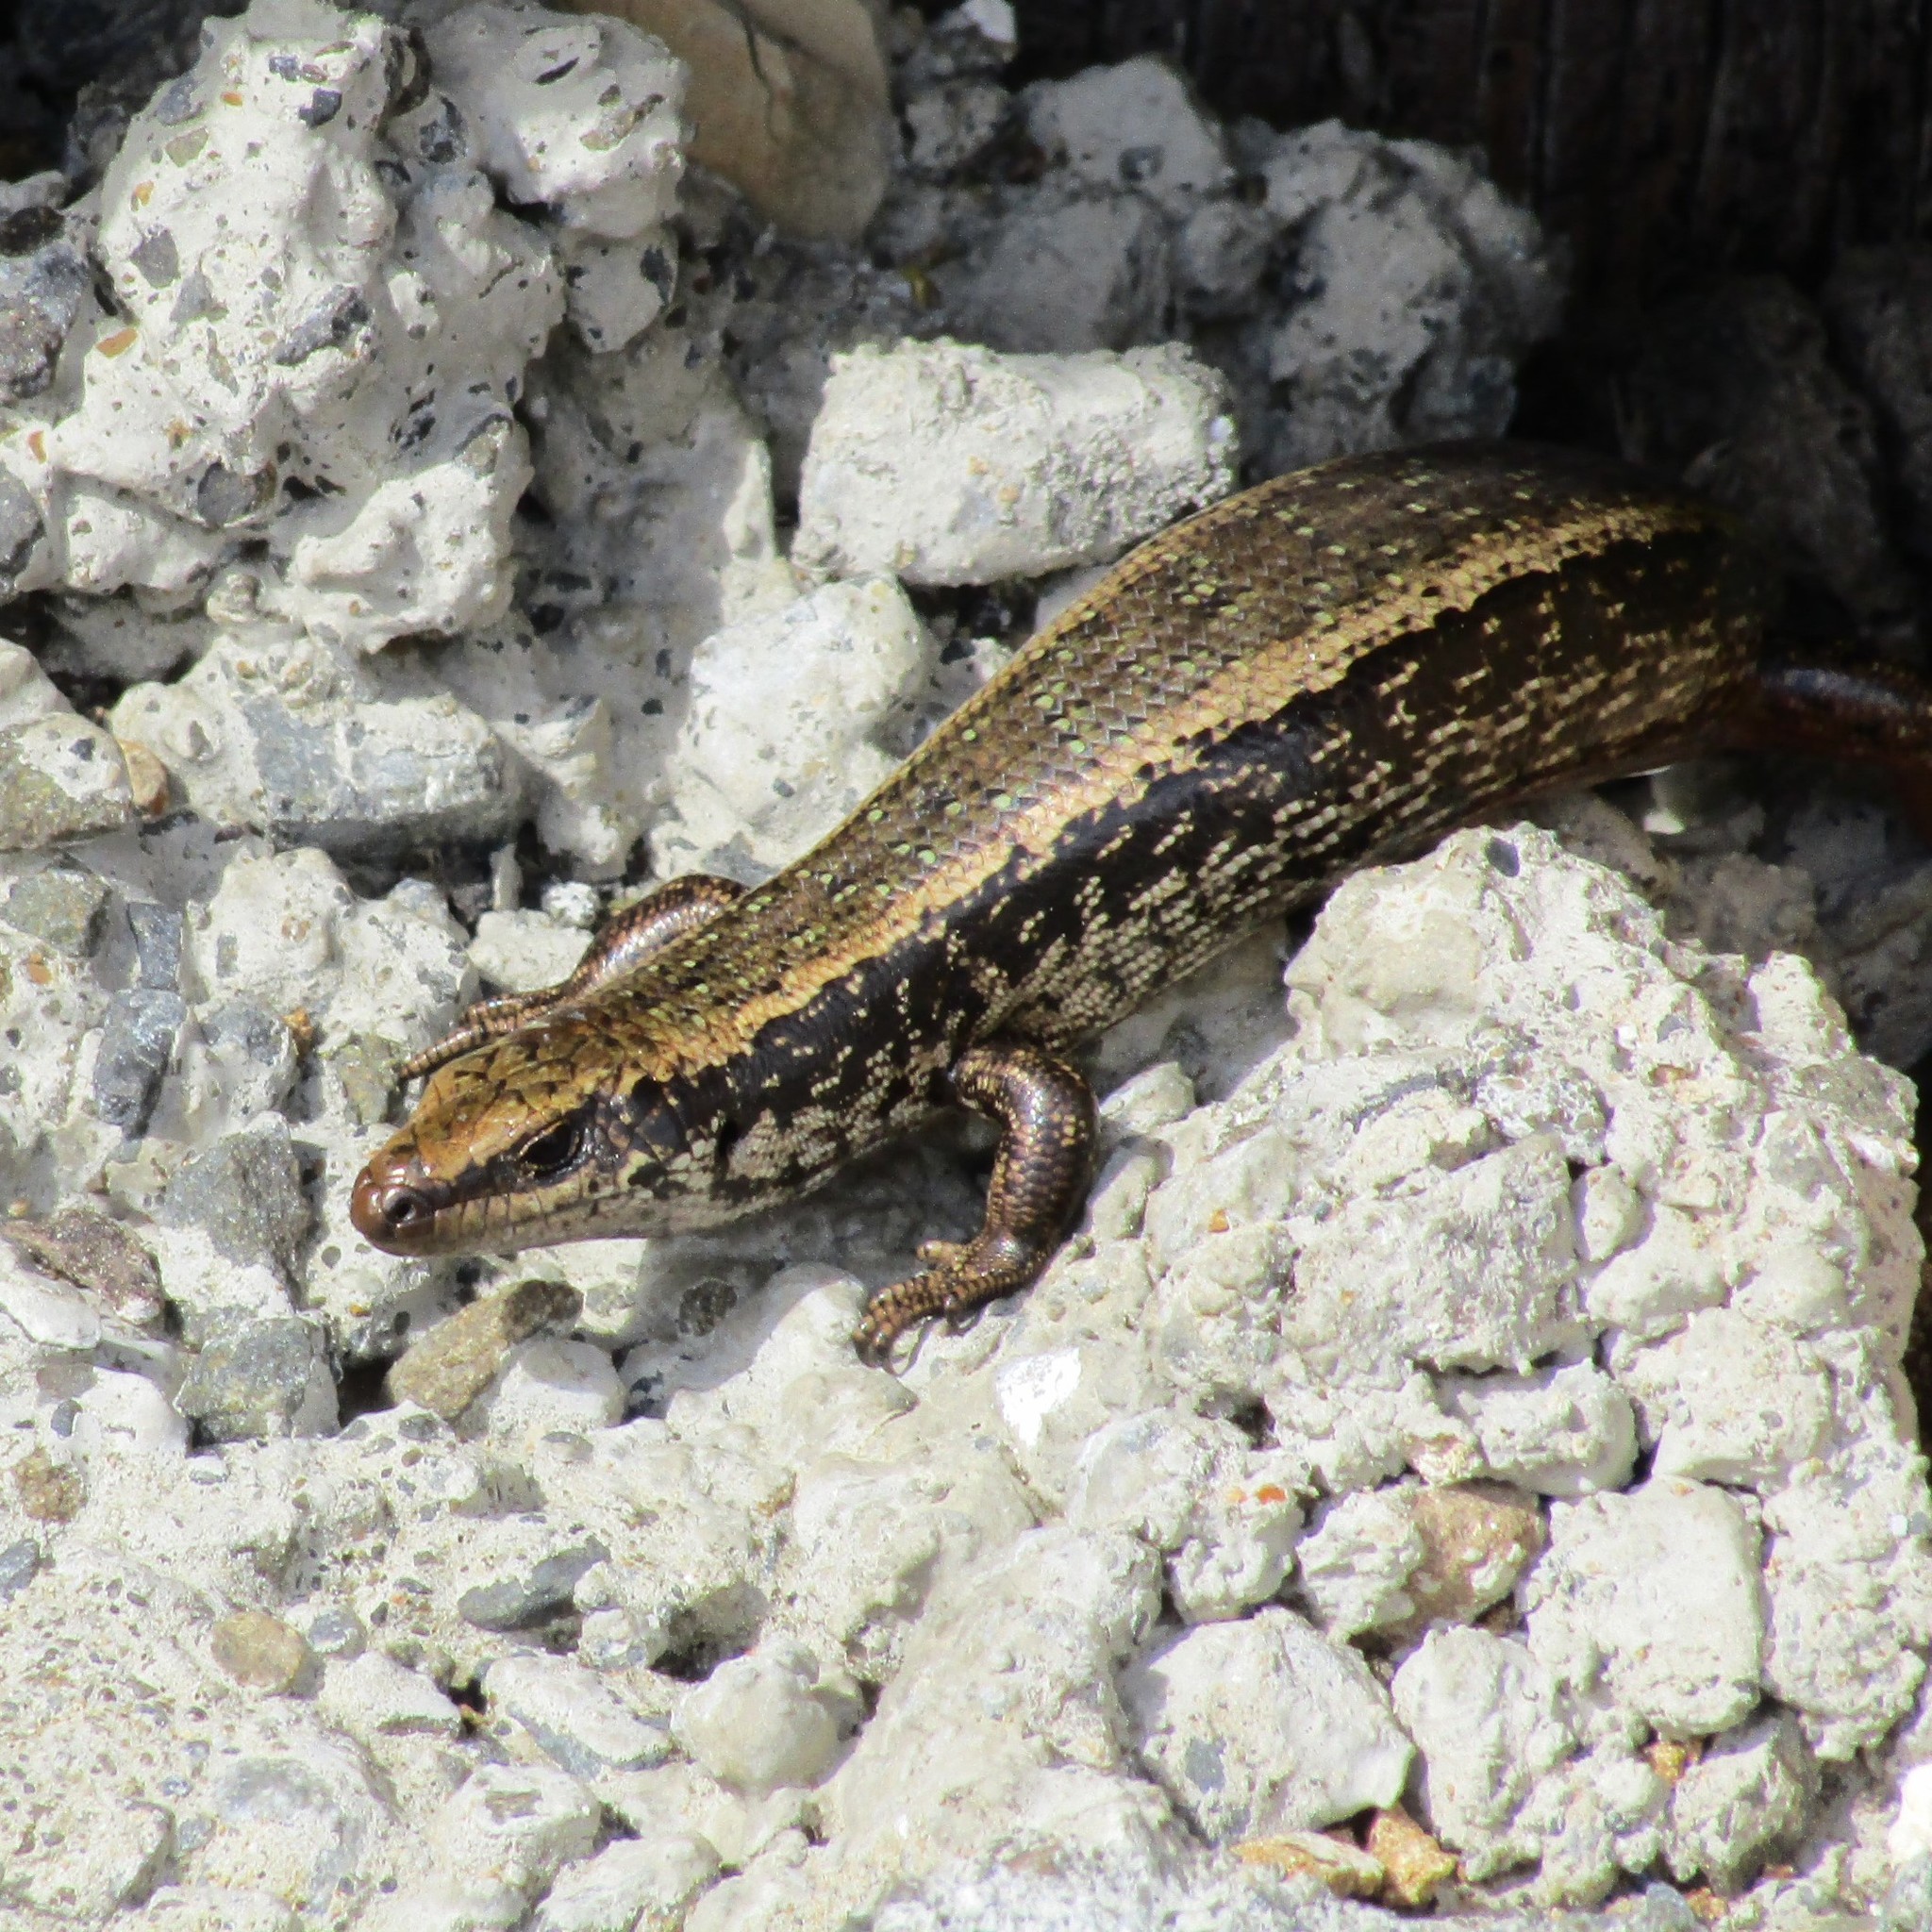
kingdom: Animalia
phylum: Chordata
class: Squamata
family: Scincidae
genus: Oligosoma
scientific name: Oligosoma kokowai
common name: Northern spotted skink
